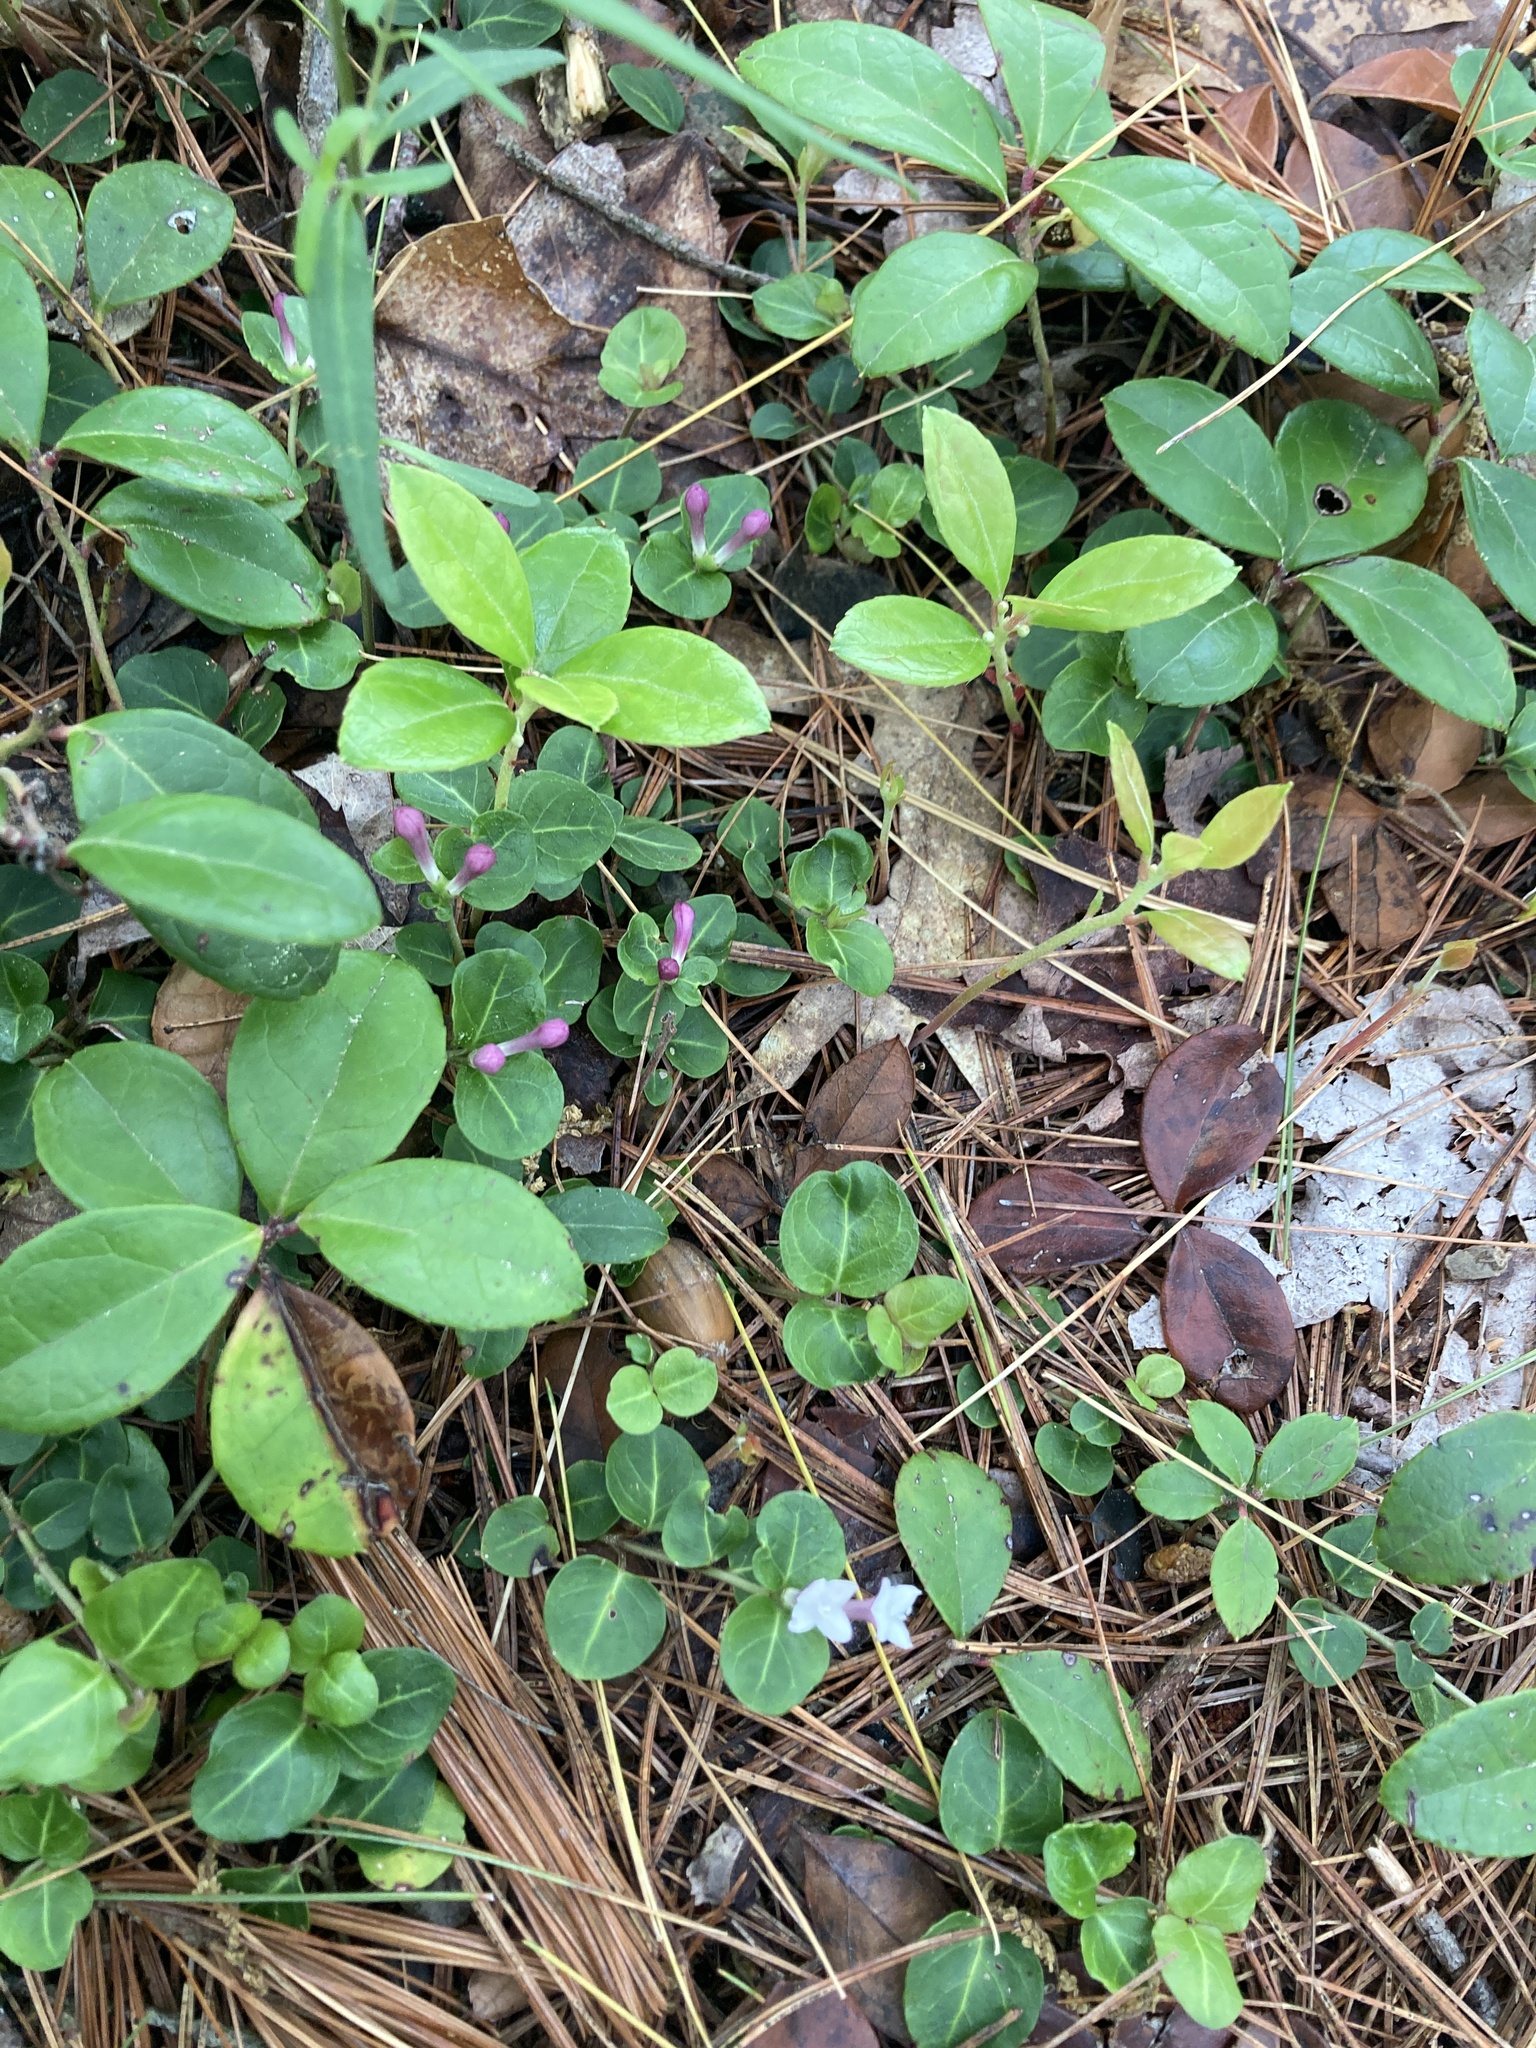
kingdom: Plantae
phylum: Tracheophyta
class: Magnoliopsida
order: Gentianales
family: Rubiaceae
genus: Mitchella
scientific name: Mitchella repens
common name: Partridge-berry
